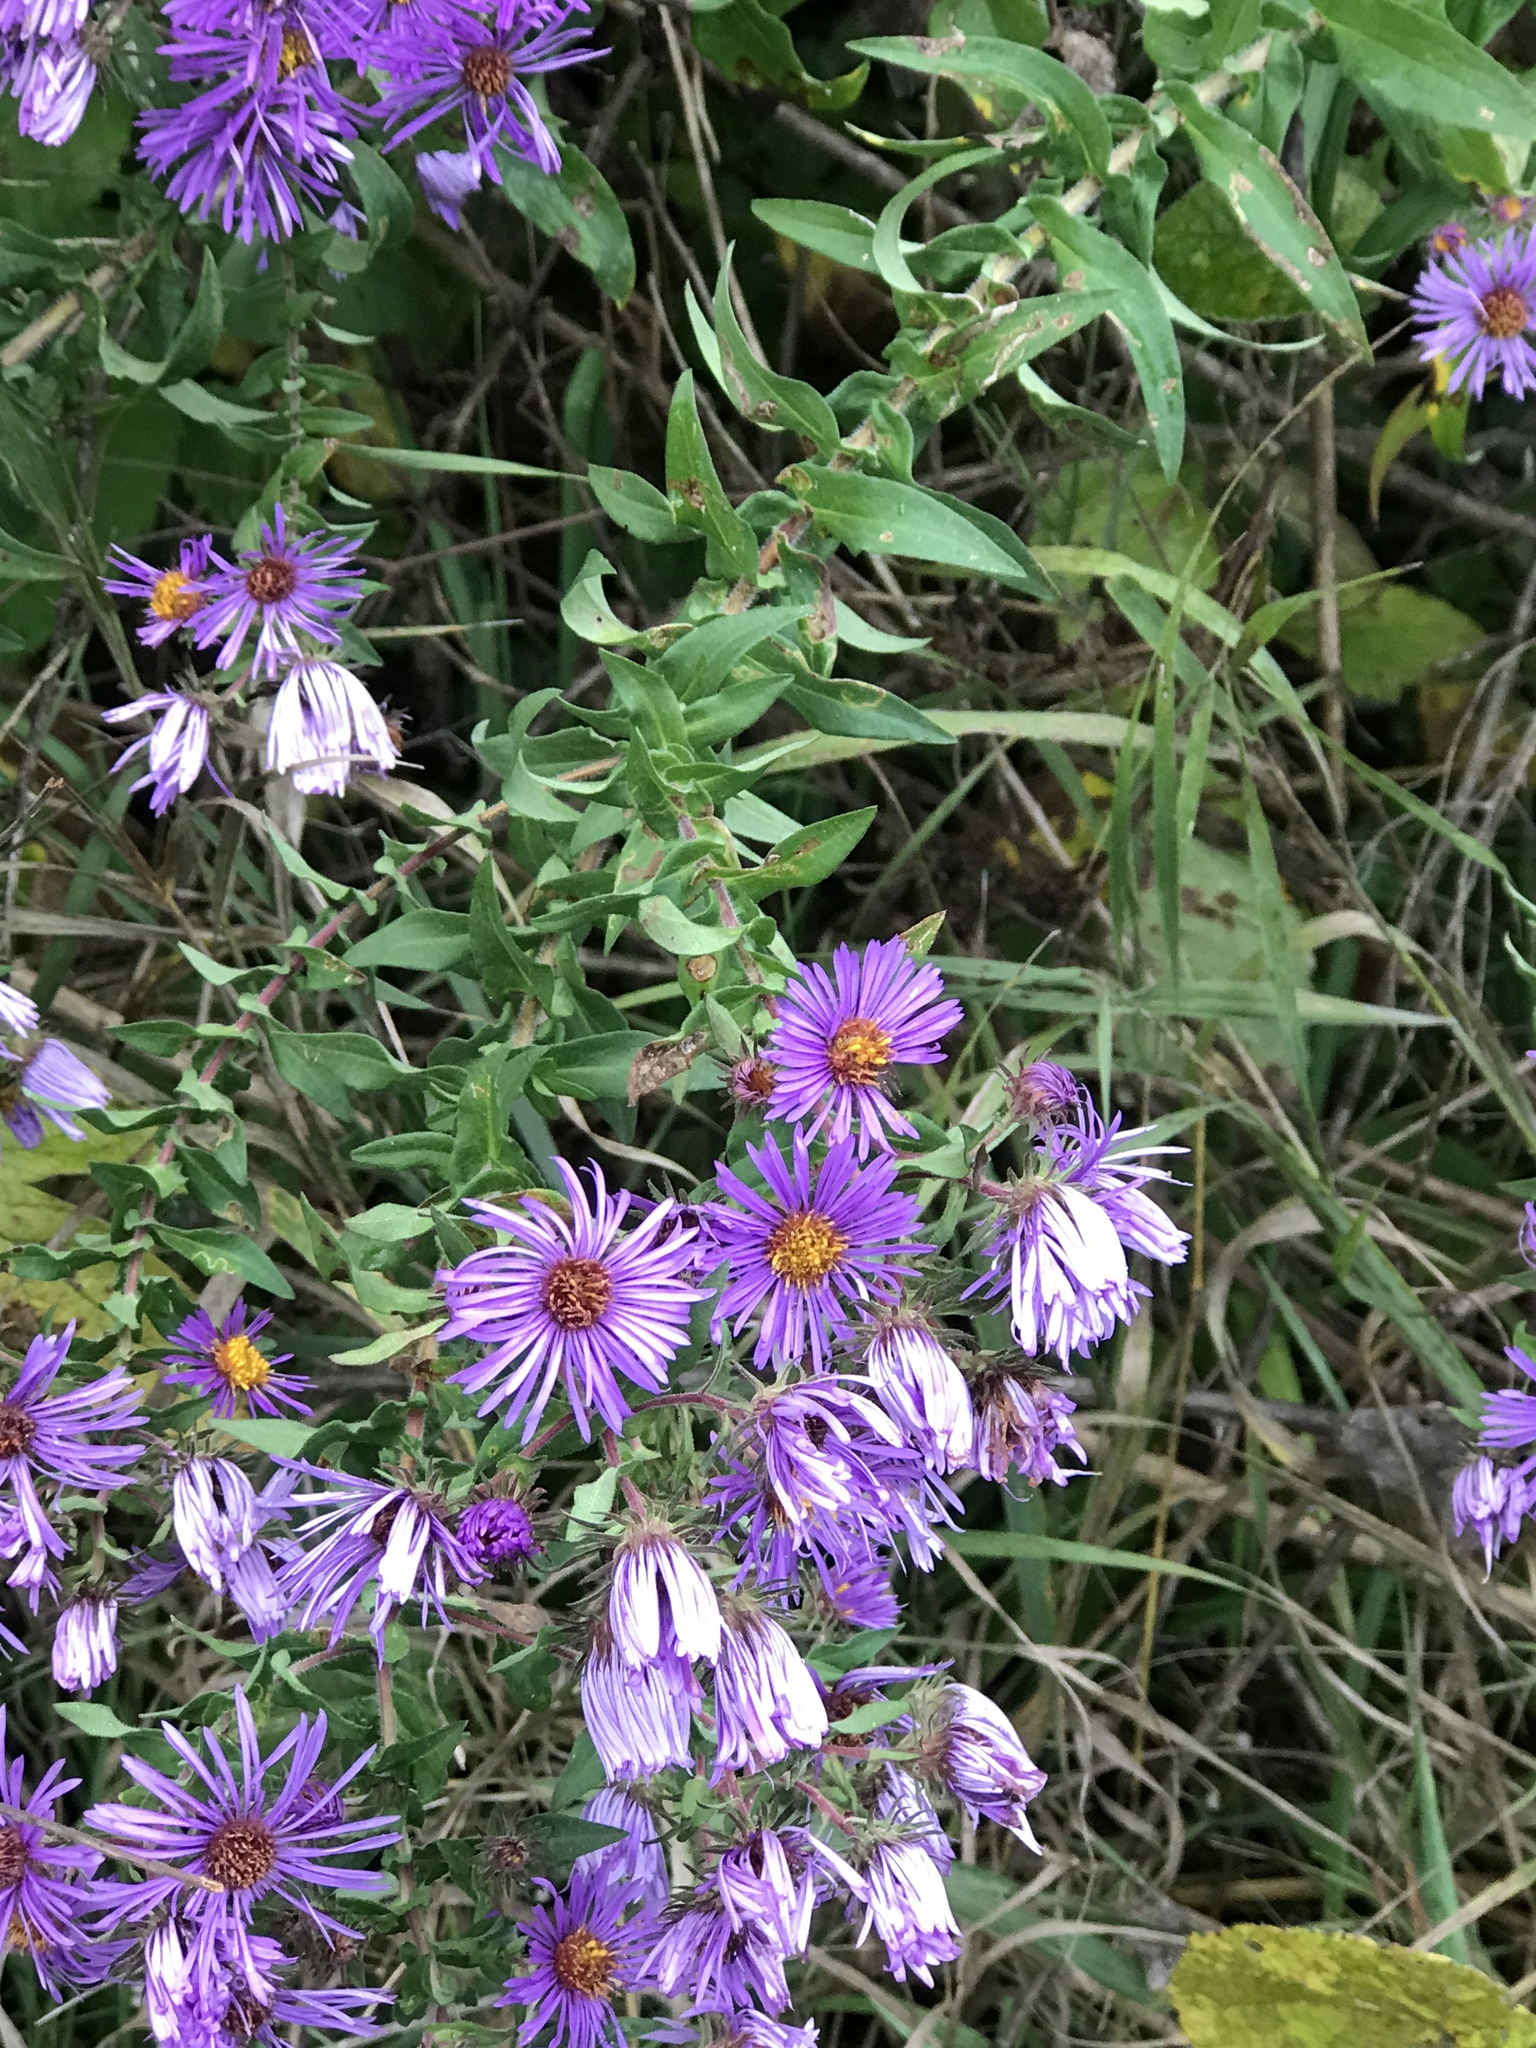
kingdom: Plantae
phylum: Tracheophyta
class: Magnoliopsida
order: Asterales
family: Asteraceae
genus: Symphyotrichum
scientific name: Symphyotrichum novae-angliae
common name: Michaelmas daisy
